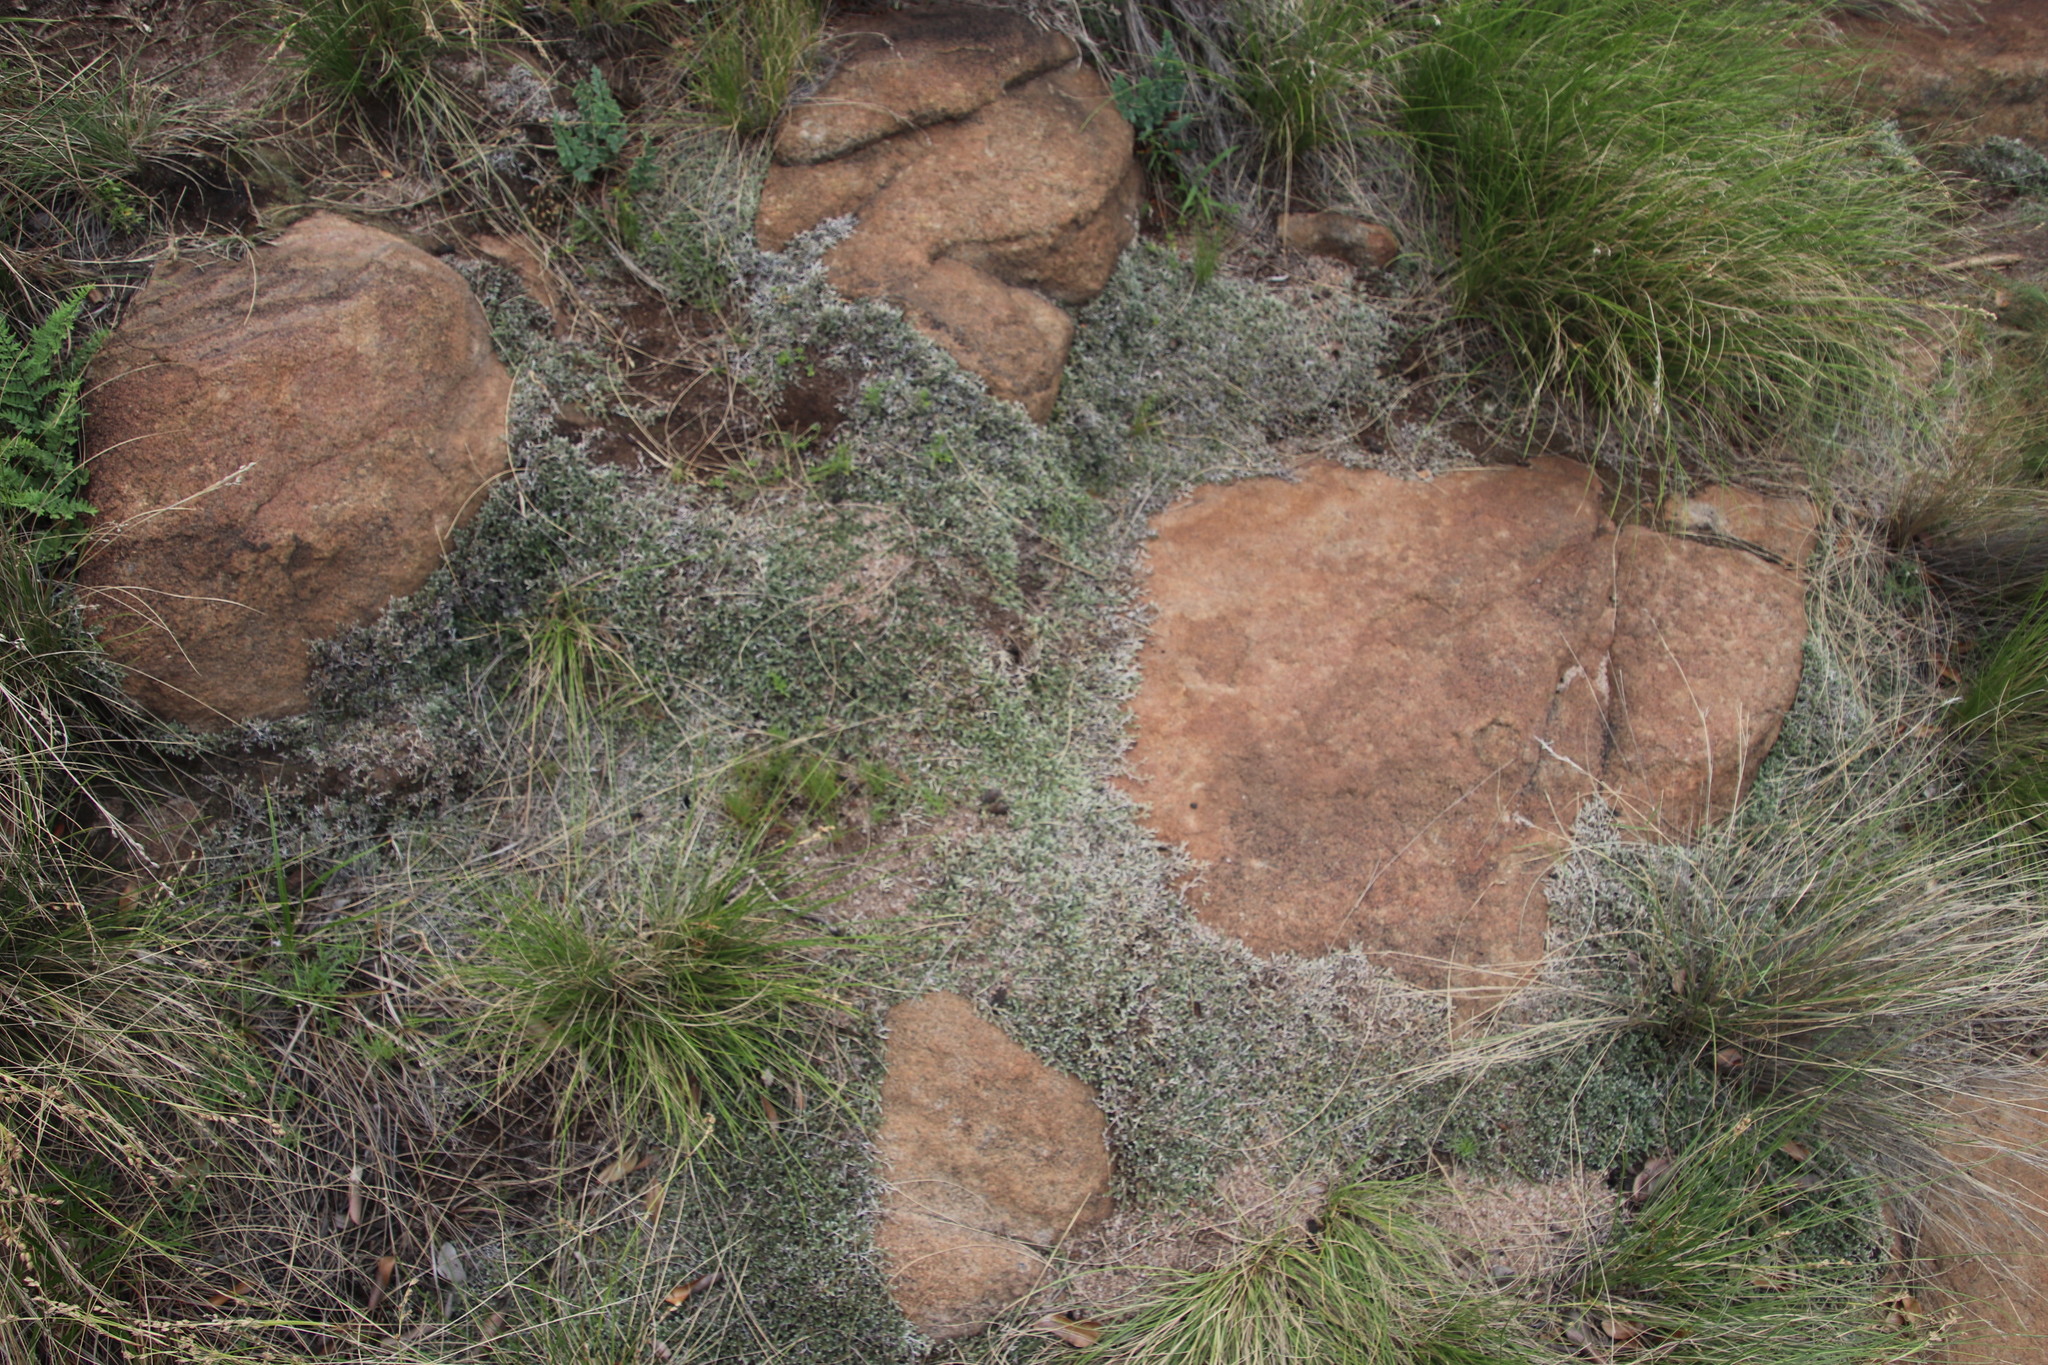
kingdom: Plantae
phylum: Tracheophyta
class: Lycopodiopsida
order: Selaginellales
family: Selaginellaceae
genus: Selaginella
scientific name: Selaginella dregei
